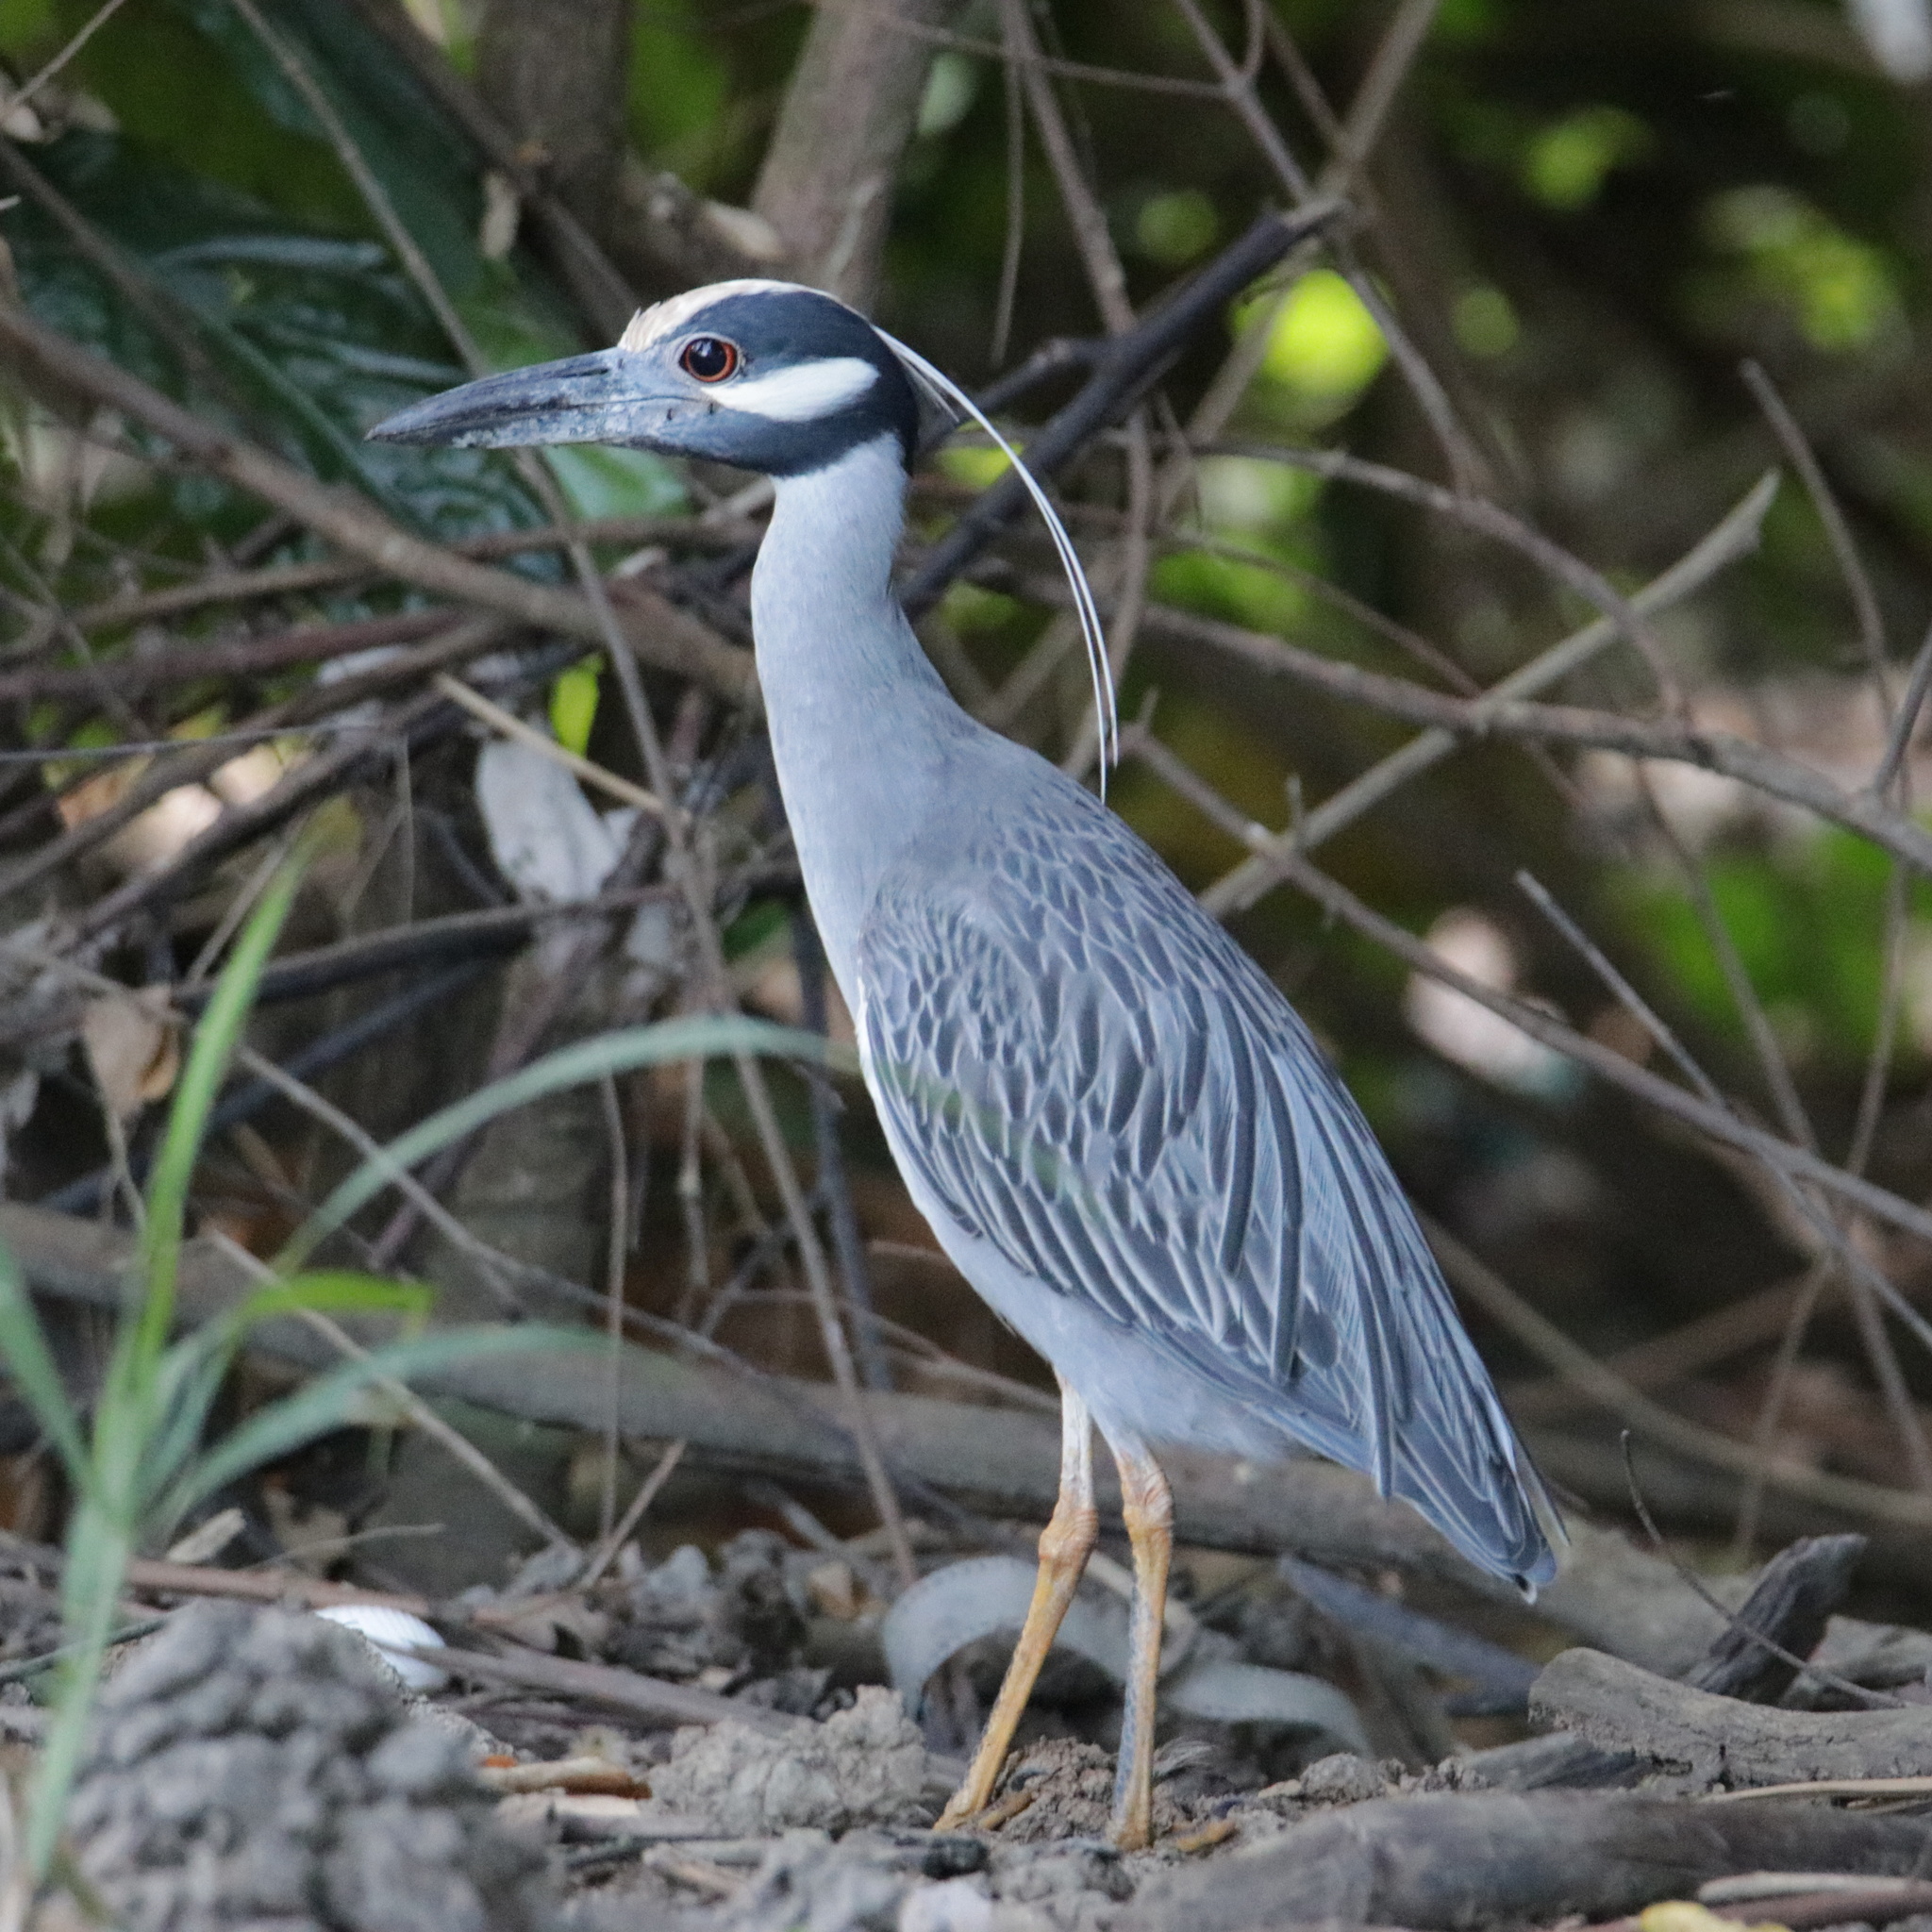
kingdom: Animalia
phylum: Chordata
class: Aves
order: Pelecaniformes
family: Ardeidae
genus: Nyctanassa
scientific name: Nyctanassa violacea
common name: Yellow-crowned night heron
